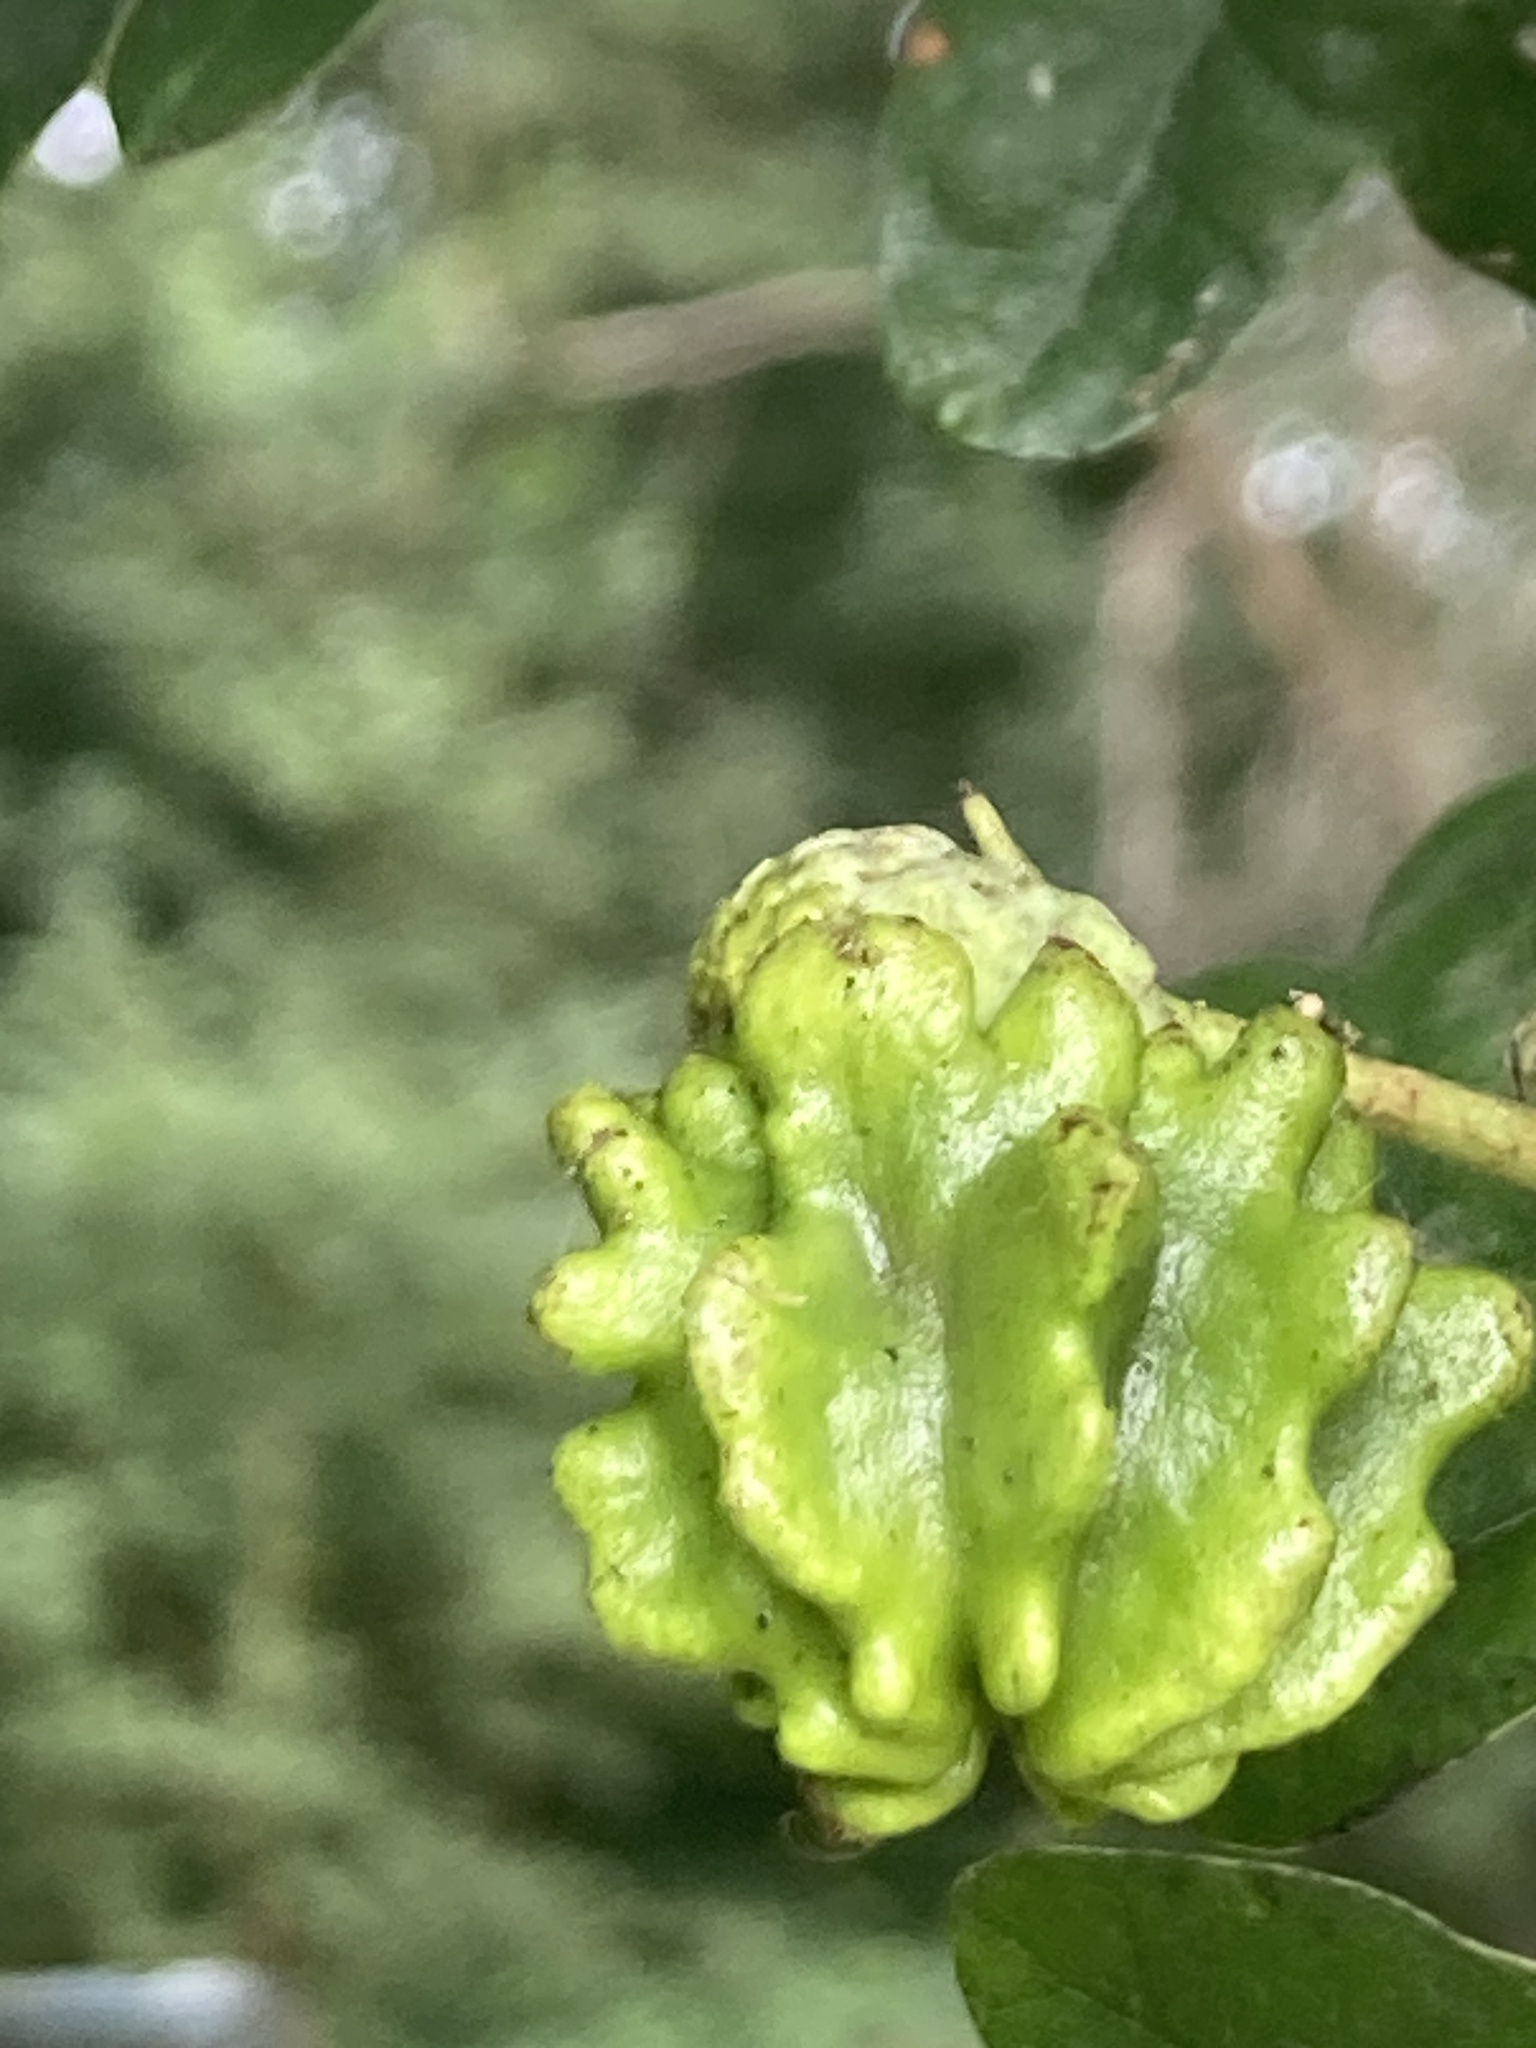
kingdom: Animalia
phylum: Arthropoda
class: Insecta
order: Hymenoptera
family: Cynipidae
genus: Andricus
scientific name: Andricus quercuscalicis
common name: Knopper gall
